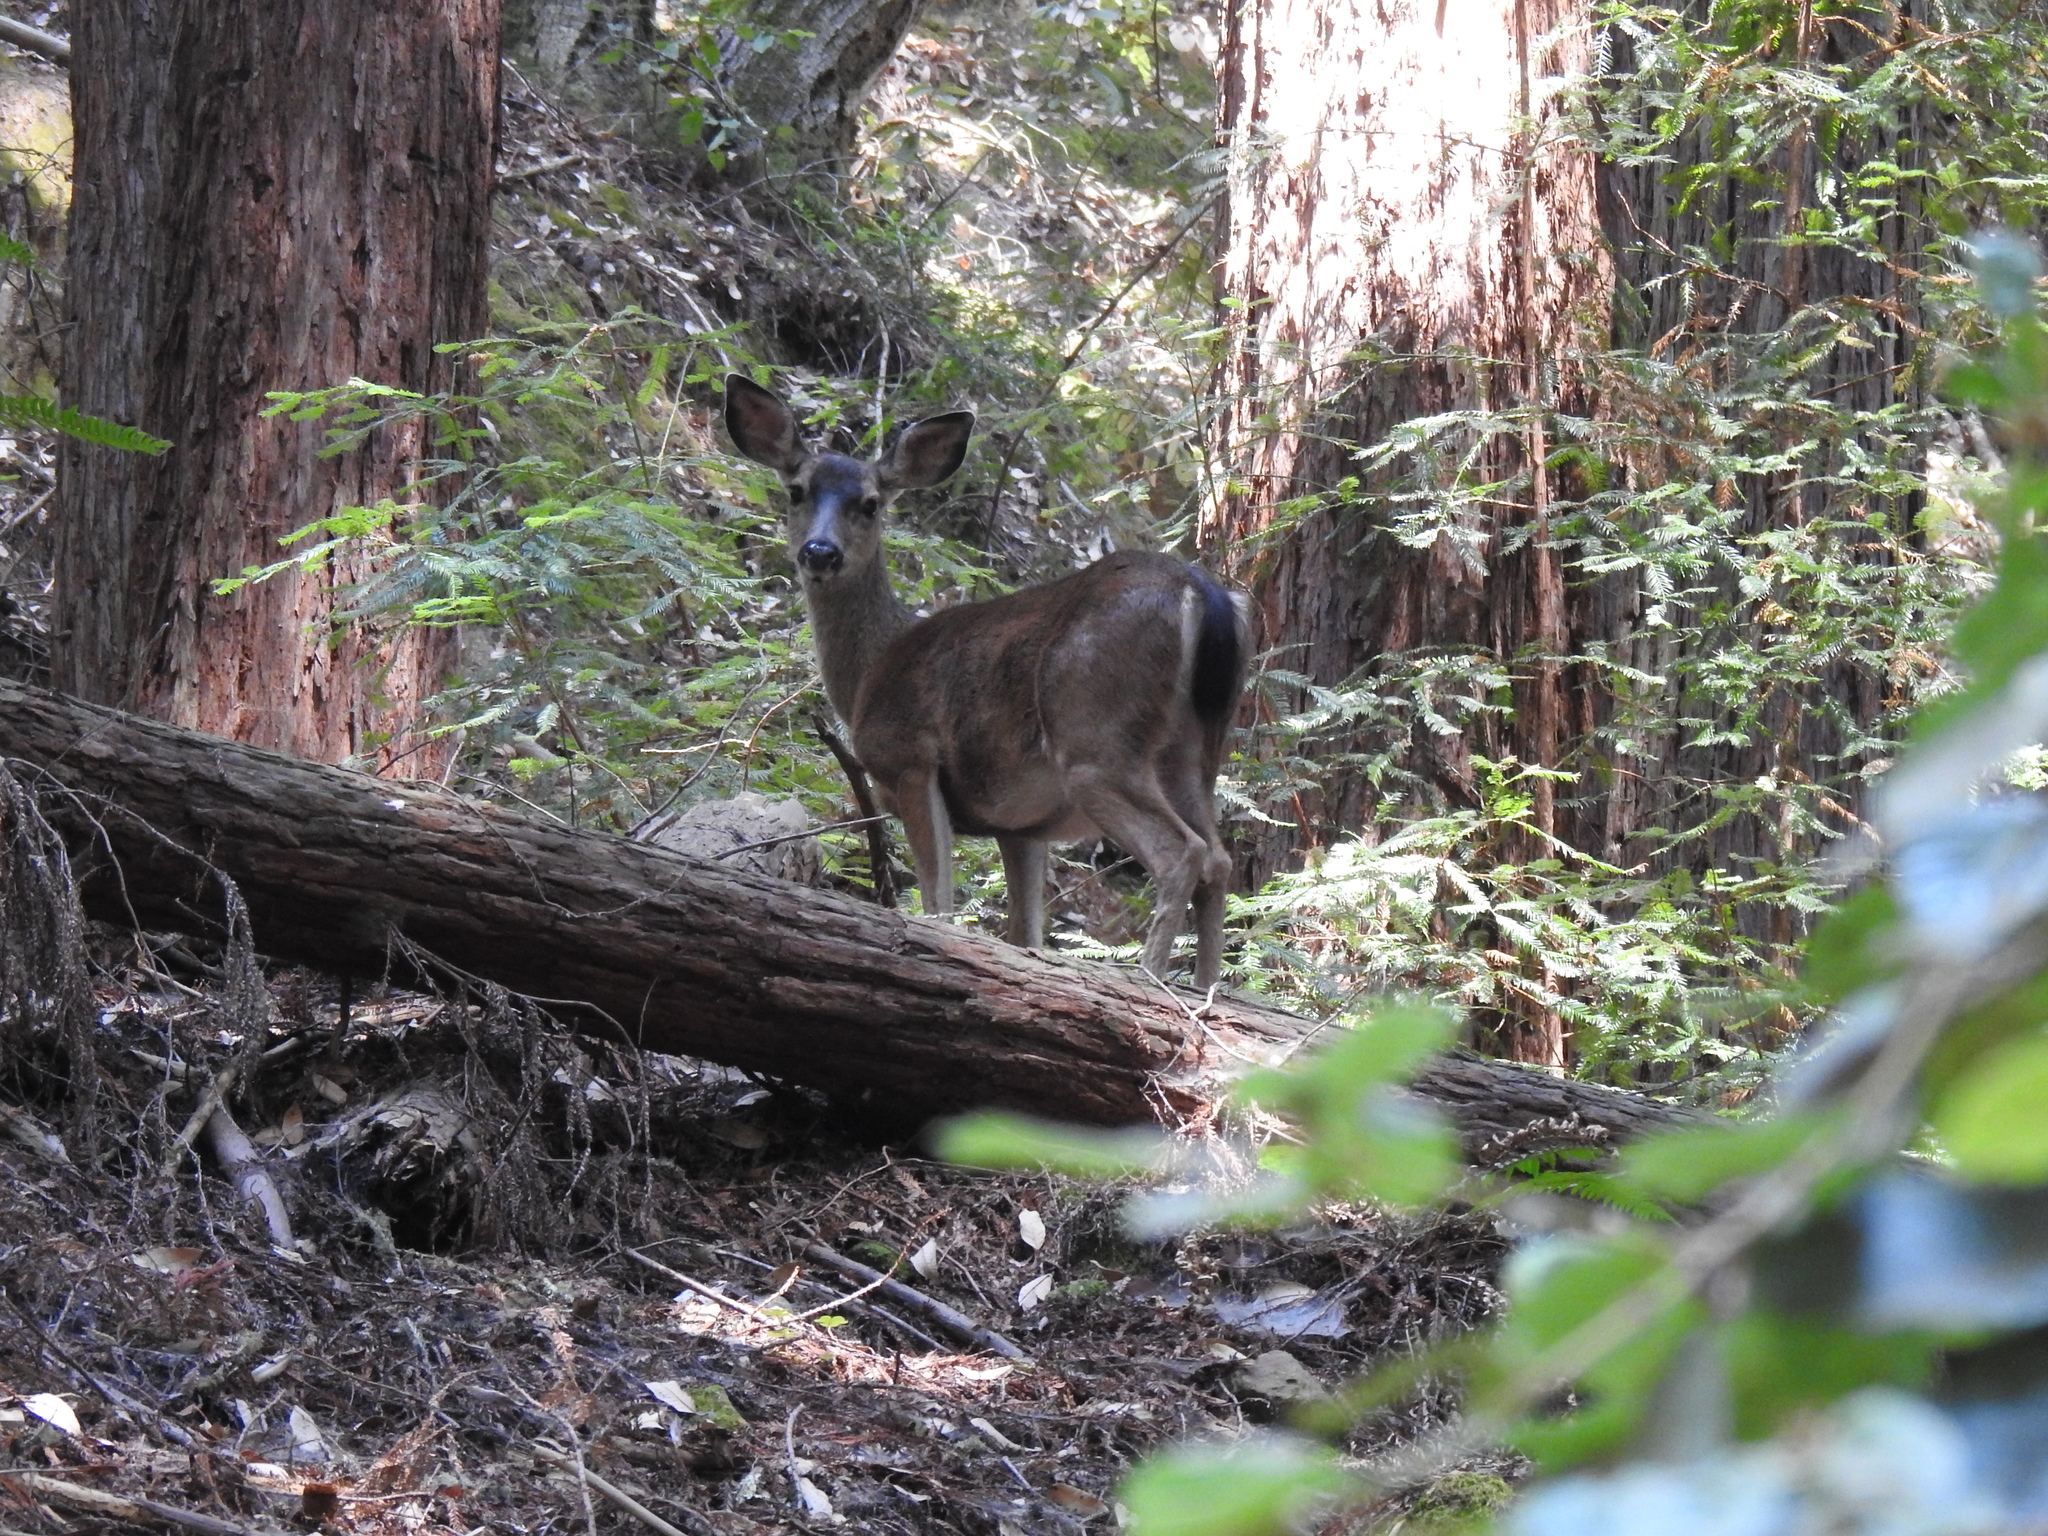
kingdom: Animalia
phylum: Chordata
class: Mammalia
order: Artiodactyla
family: Cervidae
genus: Odocoileus
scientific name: Odocoileus hemionus
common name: Mule deer
